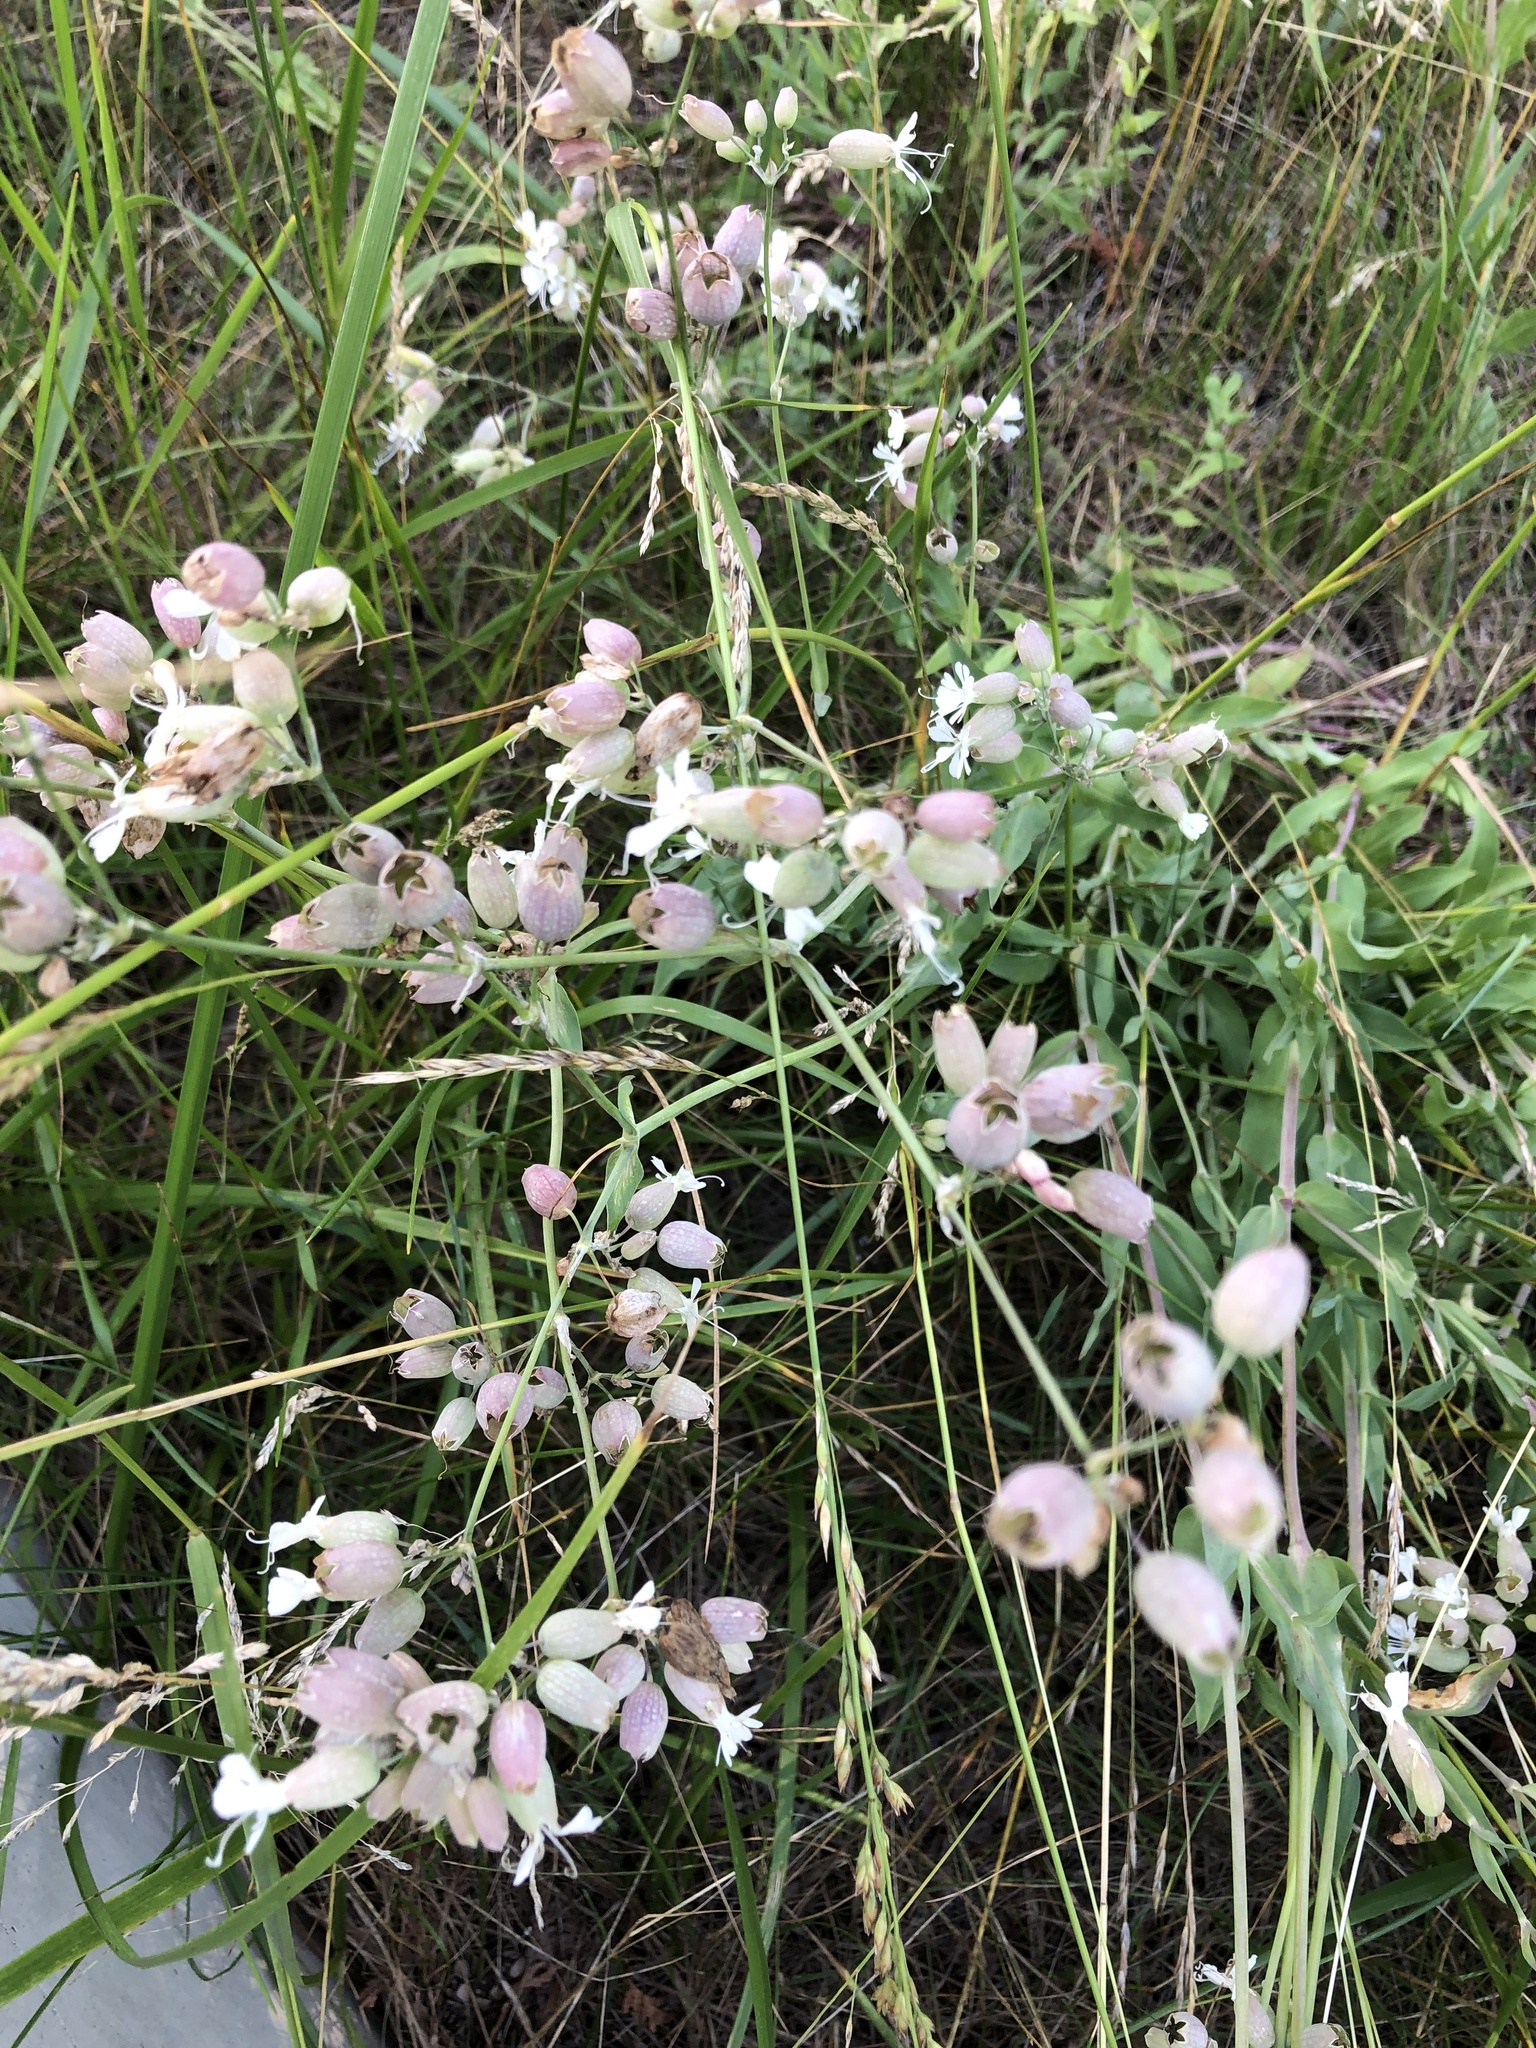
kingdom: Plantae
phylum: Tracheophyta
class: Magnoliopsida
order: Caryophyllales
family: Caryophyllaceae
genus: Silene
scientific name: Silene vulgaris
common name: Bladder campion
